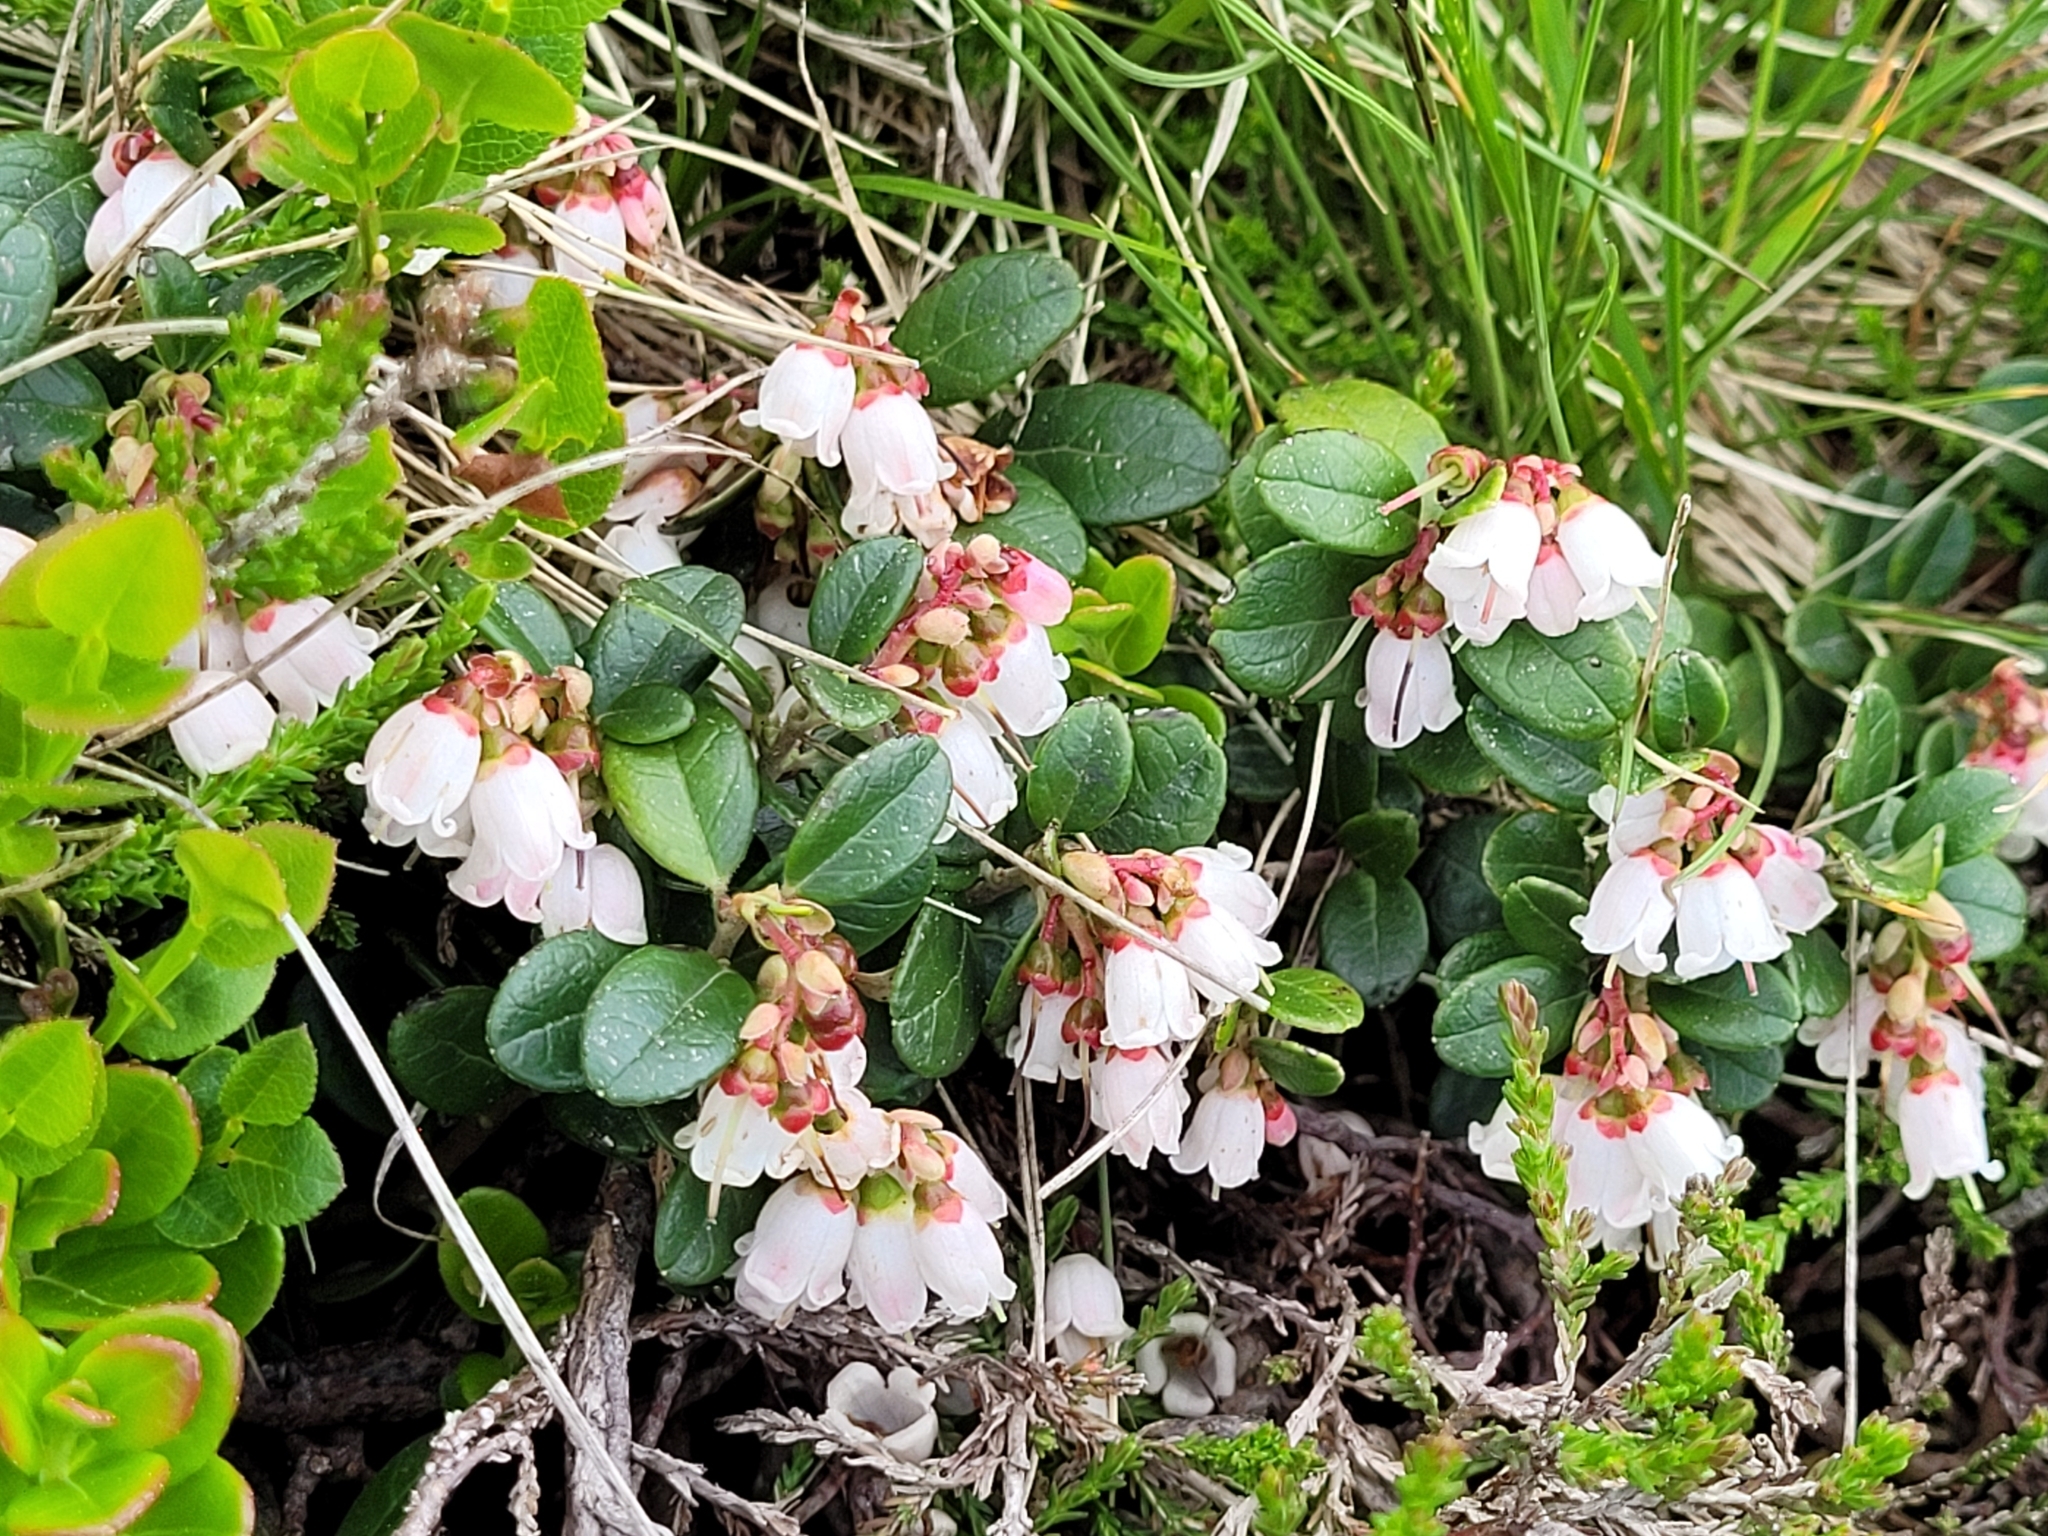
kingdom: Plantae
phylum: Tracheophyta
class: Magnoliopsida
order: Ericales
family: Ericaceae
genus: Vaccinium
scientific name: Vaccinium vitis-idaea
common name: Cowberry
